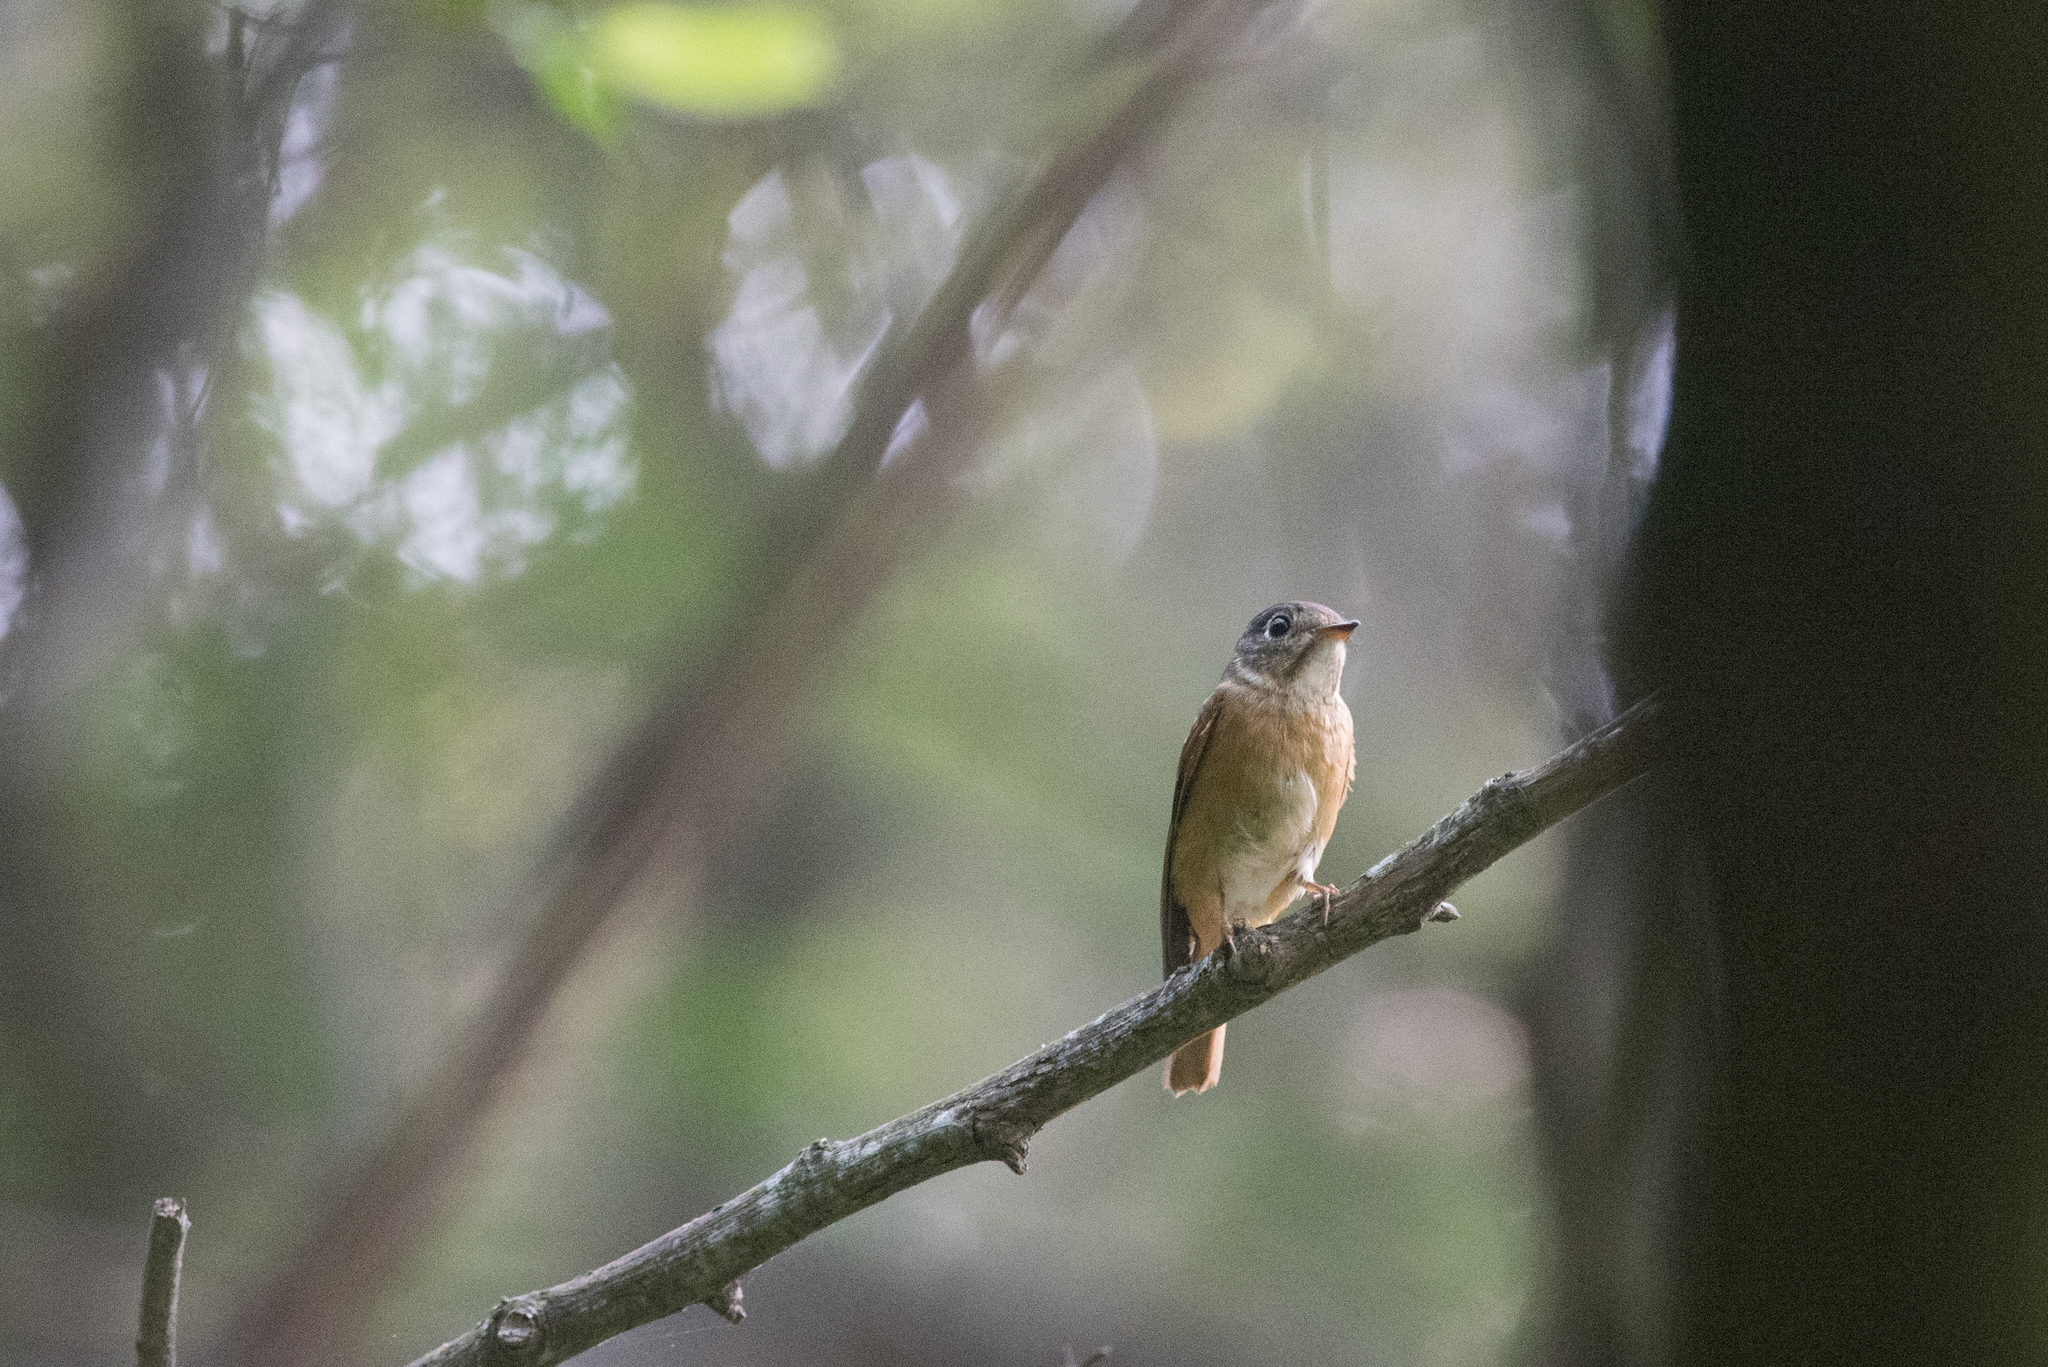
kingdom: Animalia
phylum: Chordata
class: Aves
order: Passeriformes
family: Muscicapidae
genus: Muscicapa
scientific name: Muscicapa ferruginea
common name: Ferruginous flycatcher
